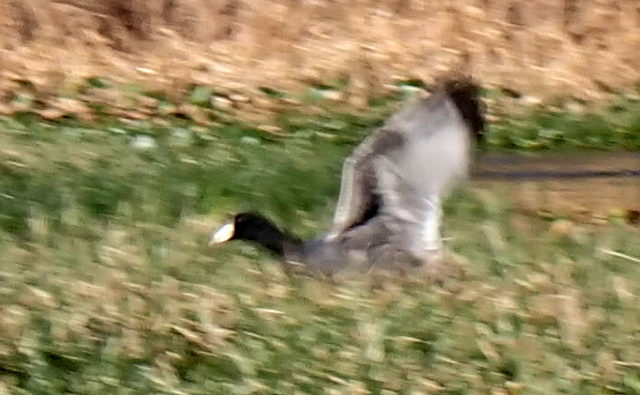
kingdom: Animalia
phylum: Chordata
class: Aves
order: Gruiformes
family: Rallidae
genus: Fulica
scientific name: Fulica americana
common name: American coot
